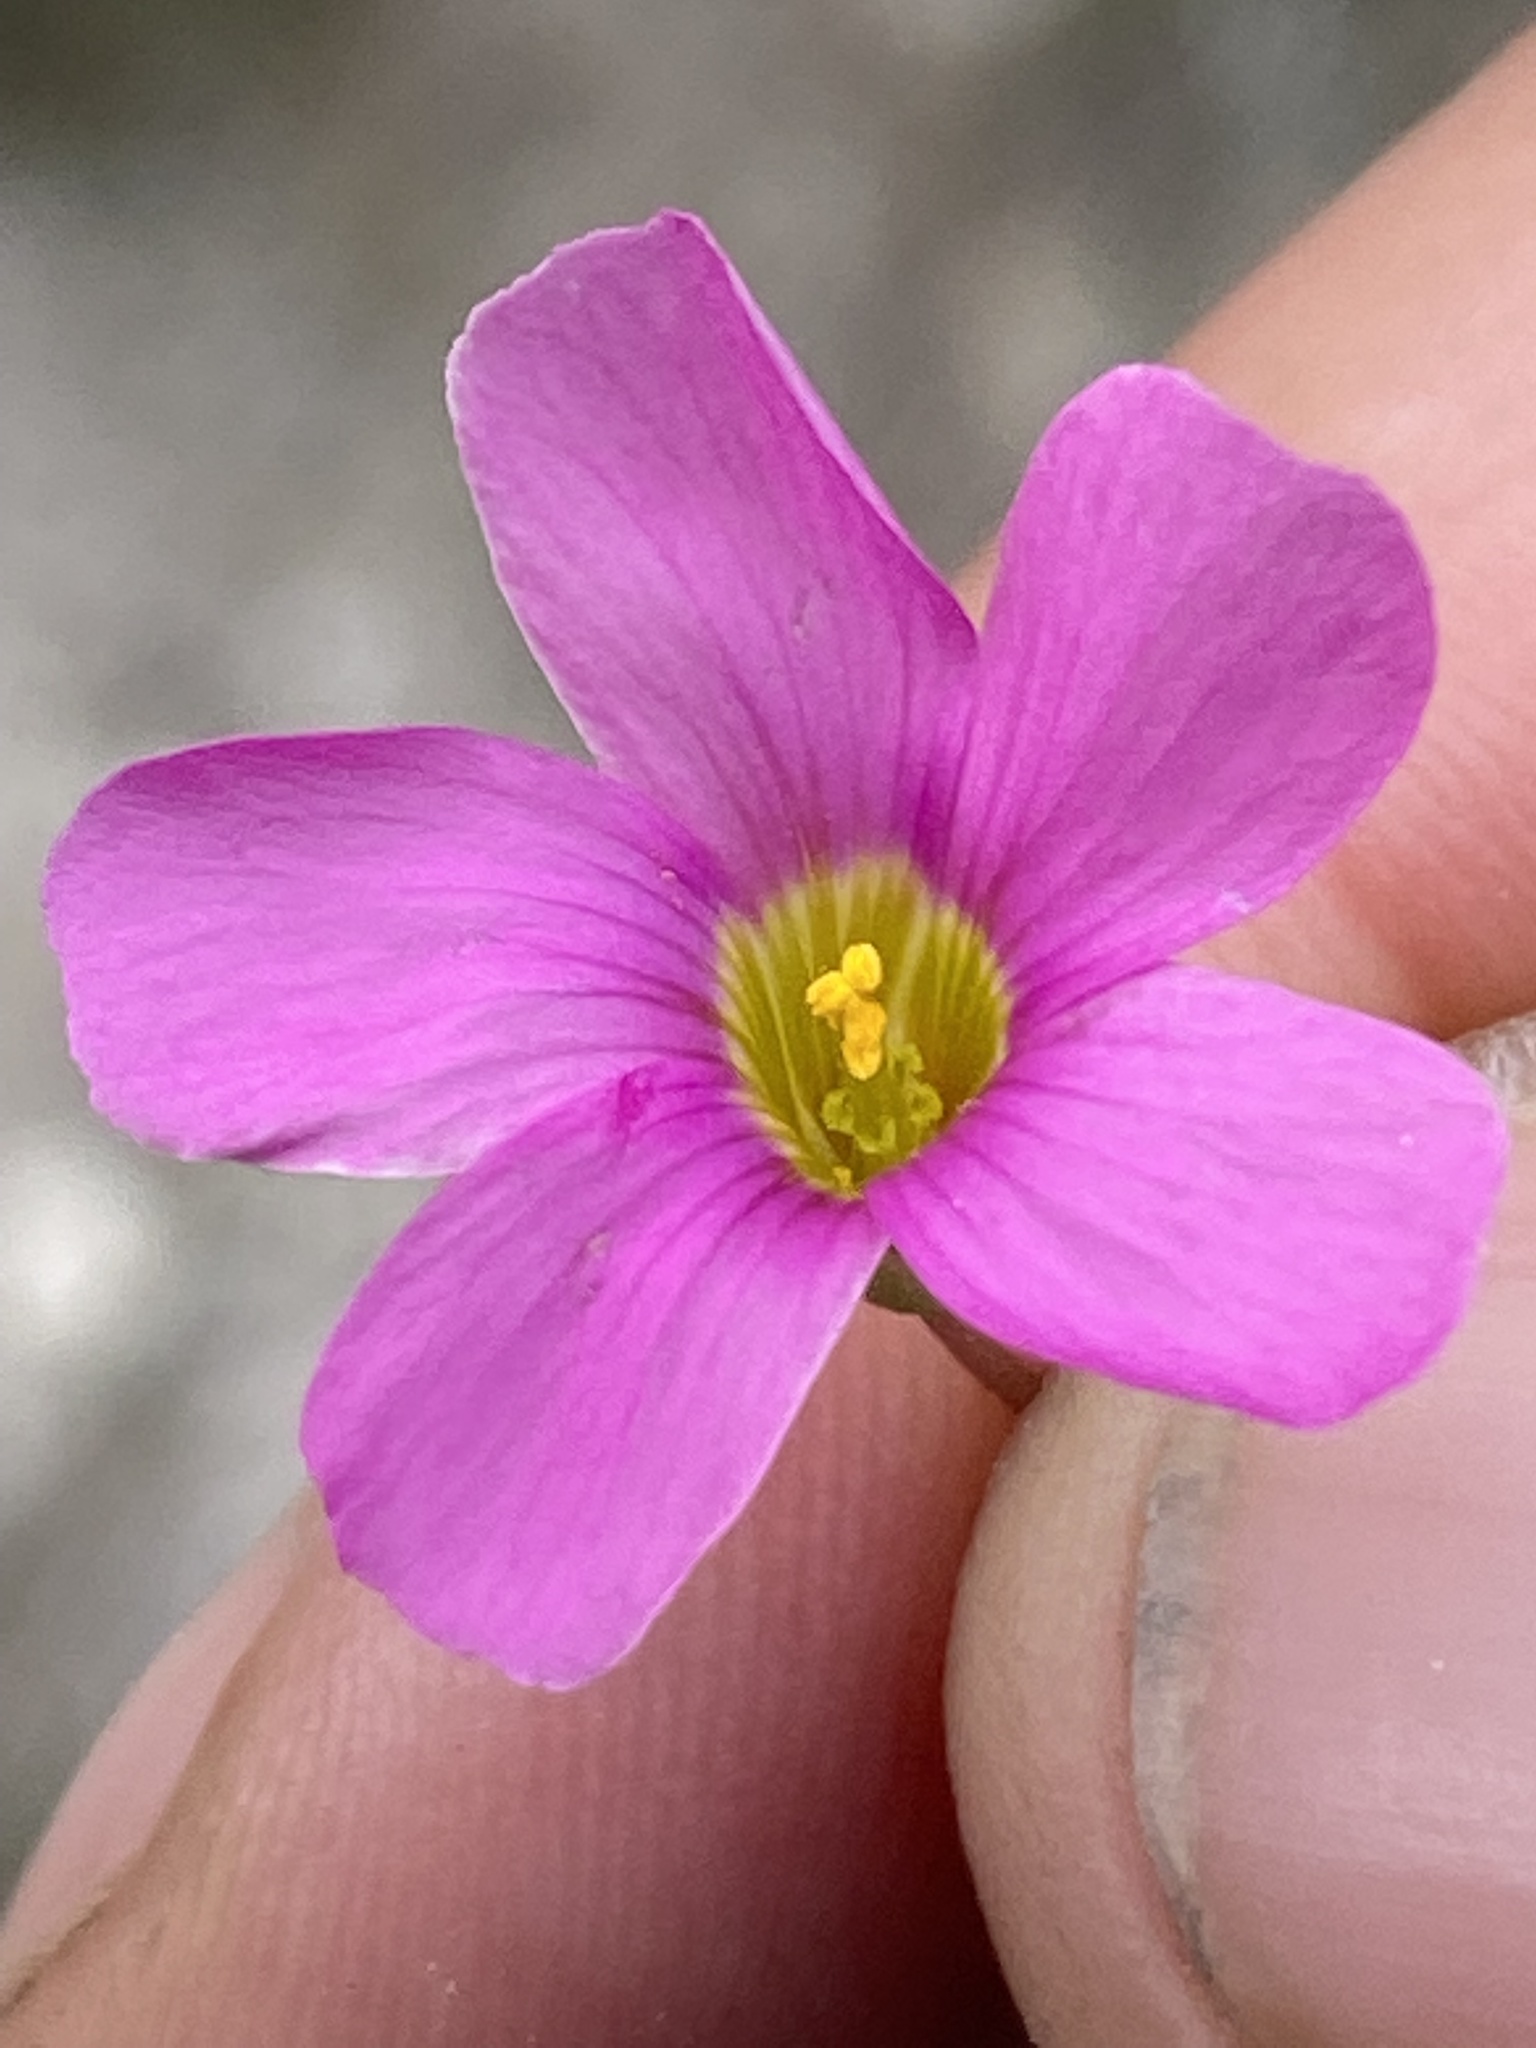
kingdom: Plantae
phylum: Tracheophyta
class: Magnoliopsida
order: Oxalidales
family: Oxalidaceae
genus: Oxalis
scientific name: Oxalis stellata
